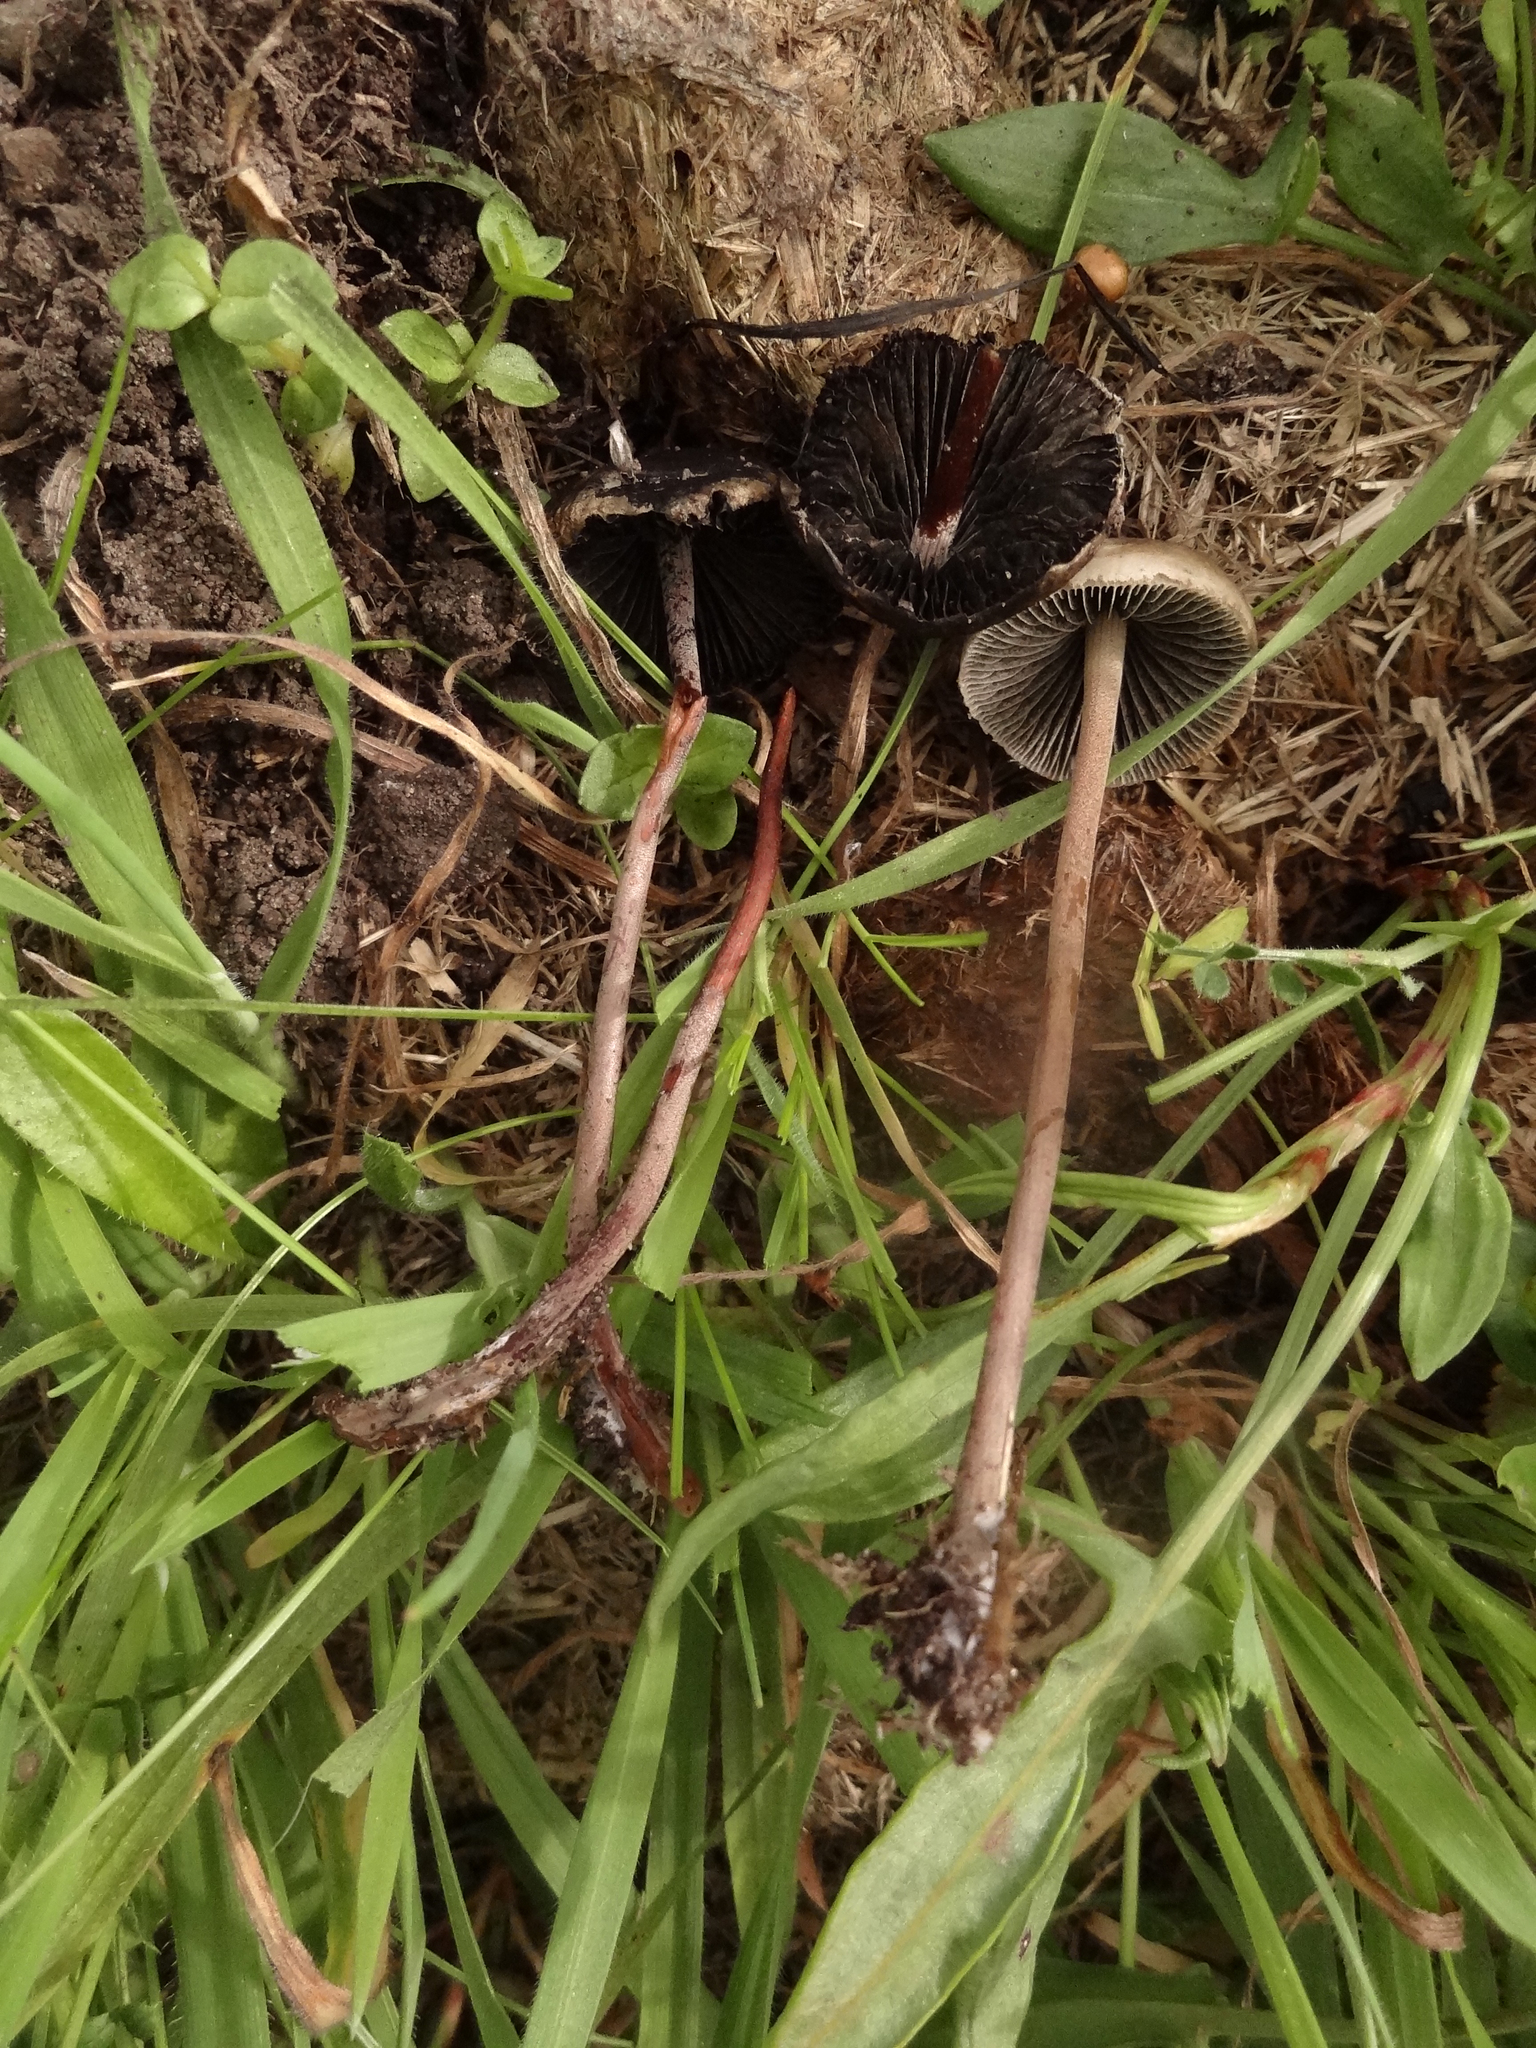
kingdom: Fungi
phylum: Basidiomycota
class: Agaricomycetes
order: Agaricales
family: Bolbitiaceae
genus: Panaeolus
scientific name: Panaeolus papilionaceus
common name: Petticoat mottlegill
